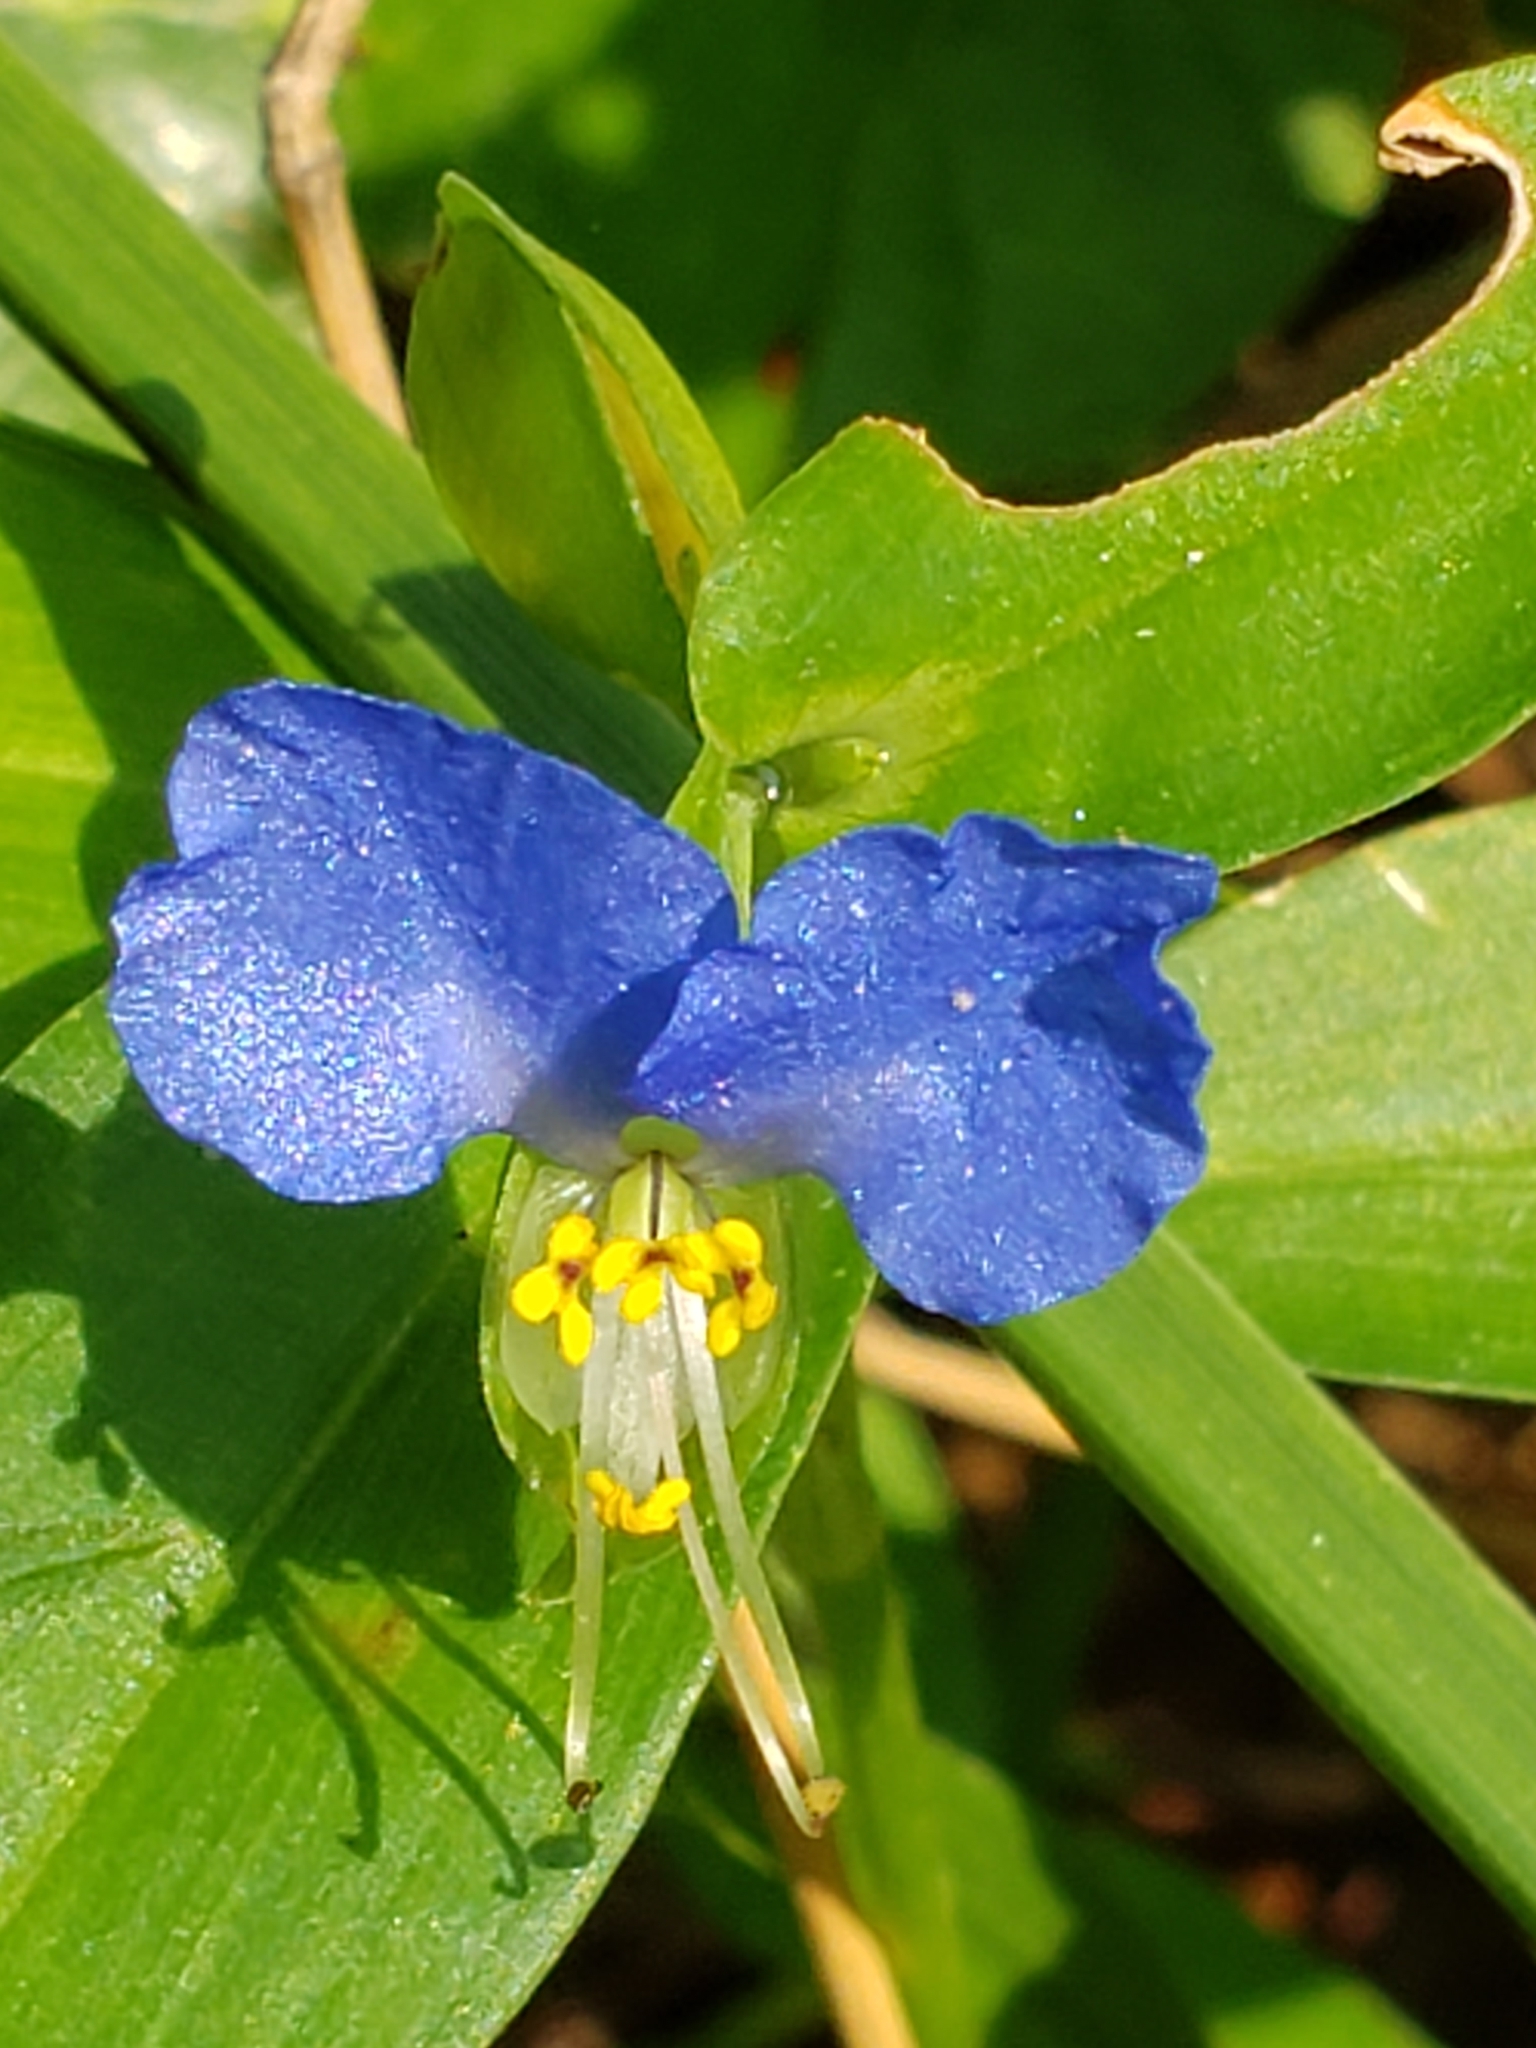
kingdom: Plantae
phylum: Tracheophyta
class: Liliopsida
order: Commelinales
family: Commelinaceae
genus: Commelina
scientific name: Commelina communis
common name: Asiatic dayflower
